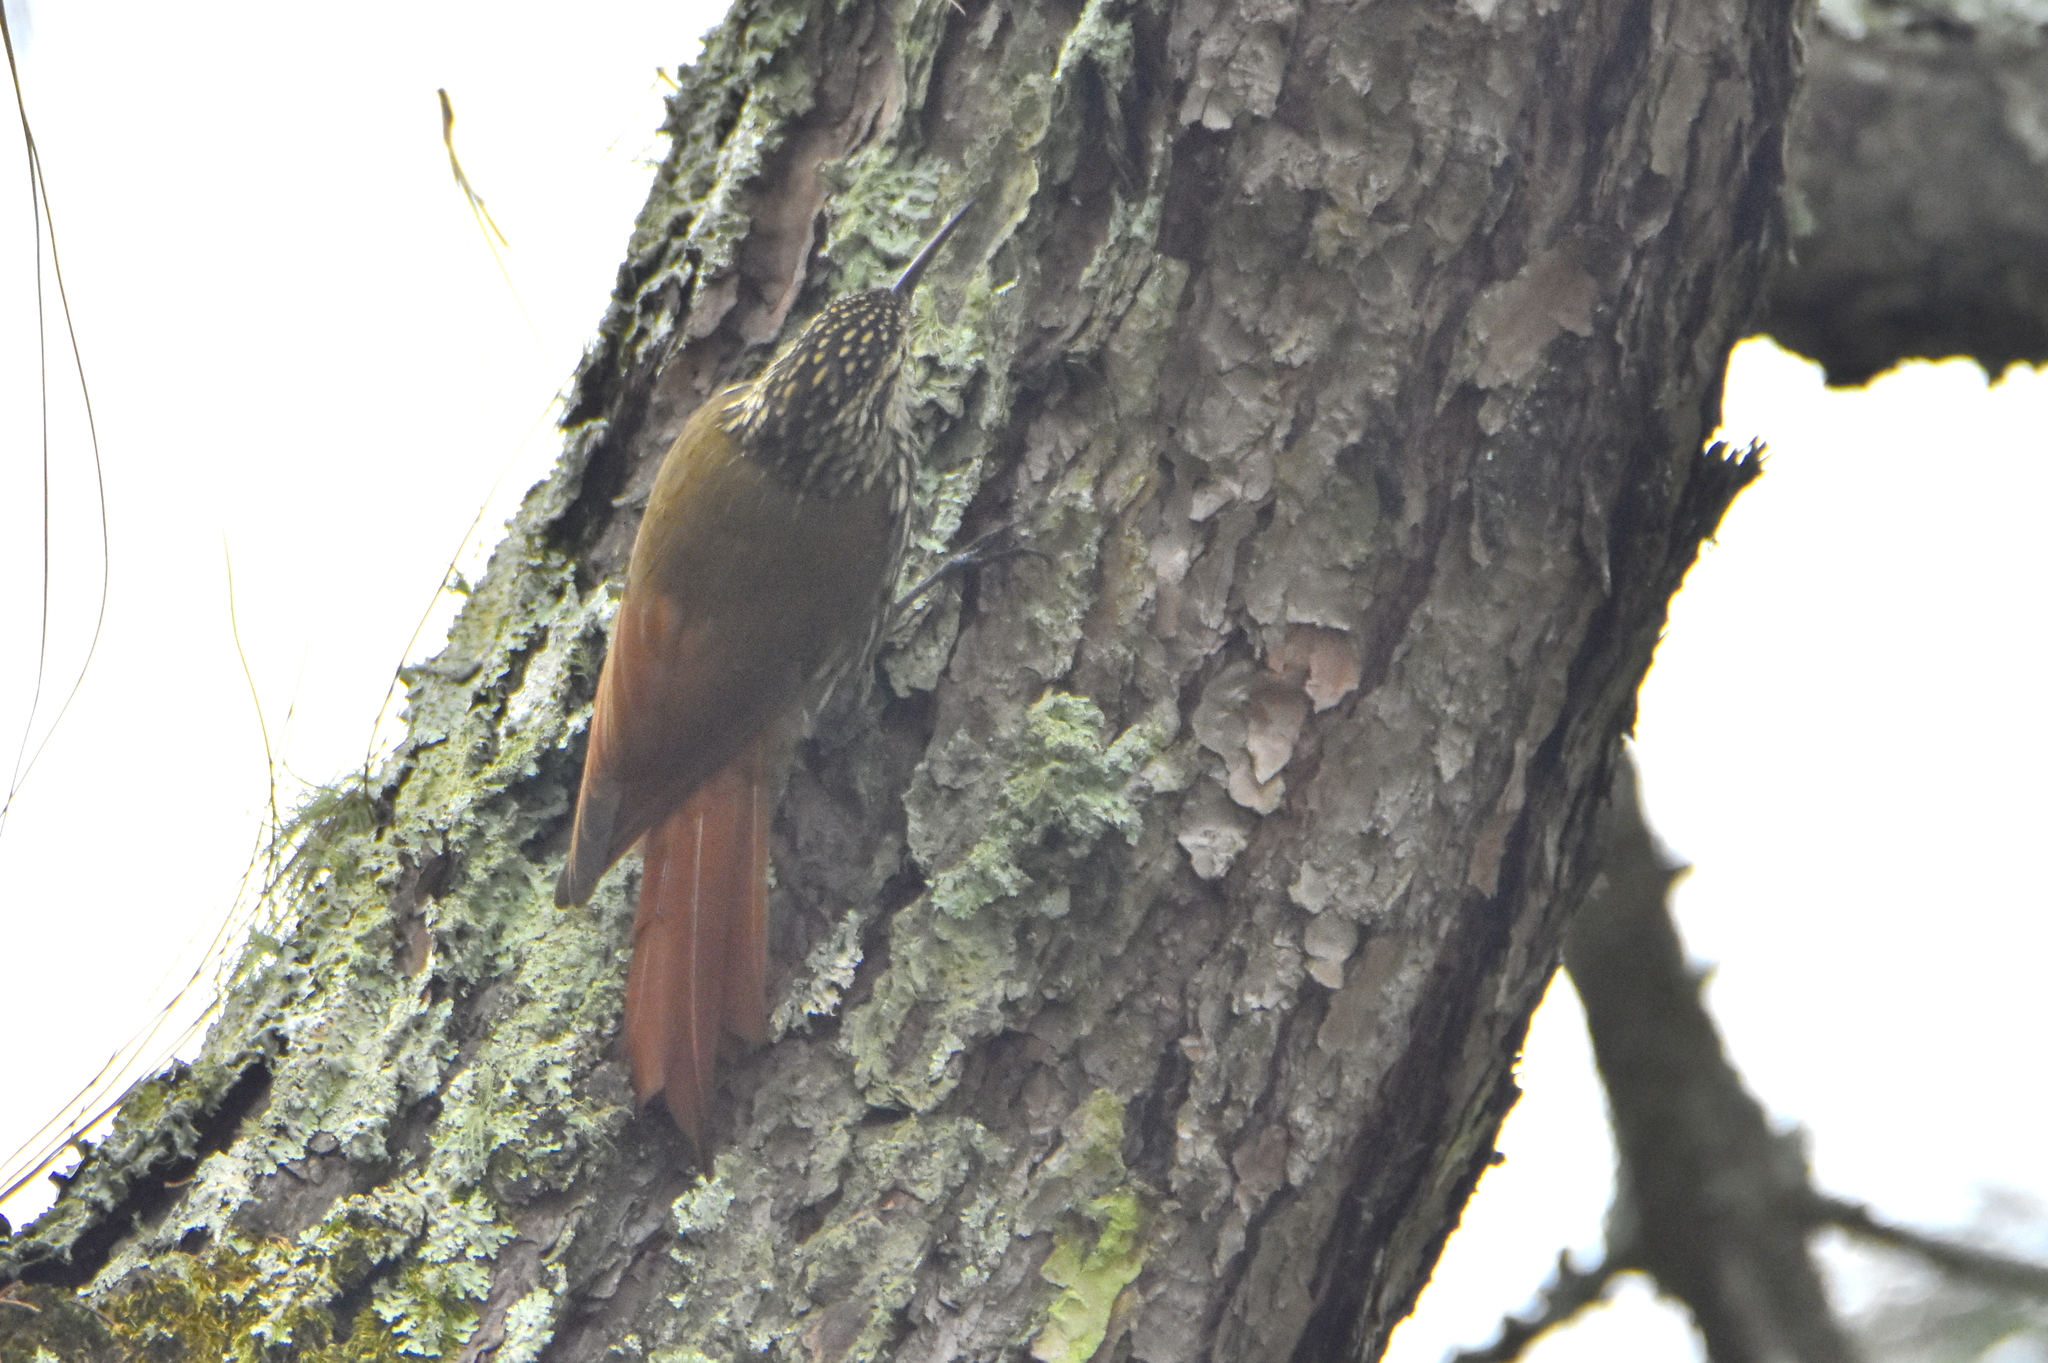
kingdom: Animalia
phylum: Chordata
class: Aves
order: Passeriformes
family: Furnariidae
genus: Lepidocolaptes
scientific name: Lepidocolaptes leucogaster
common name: White-striped woodcreeper
